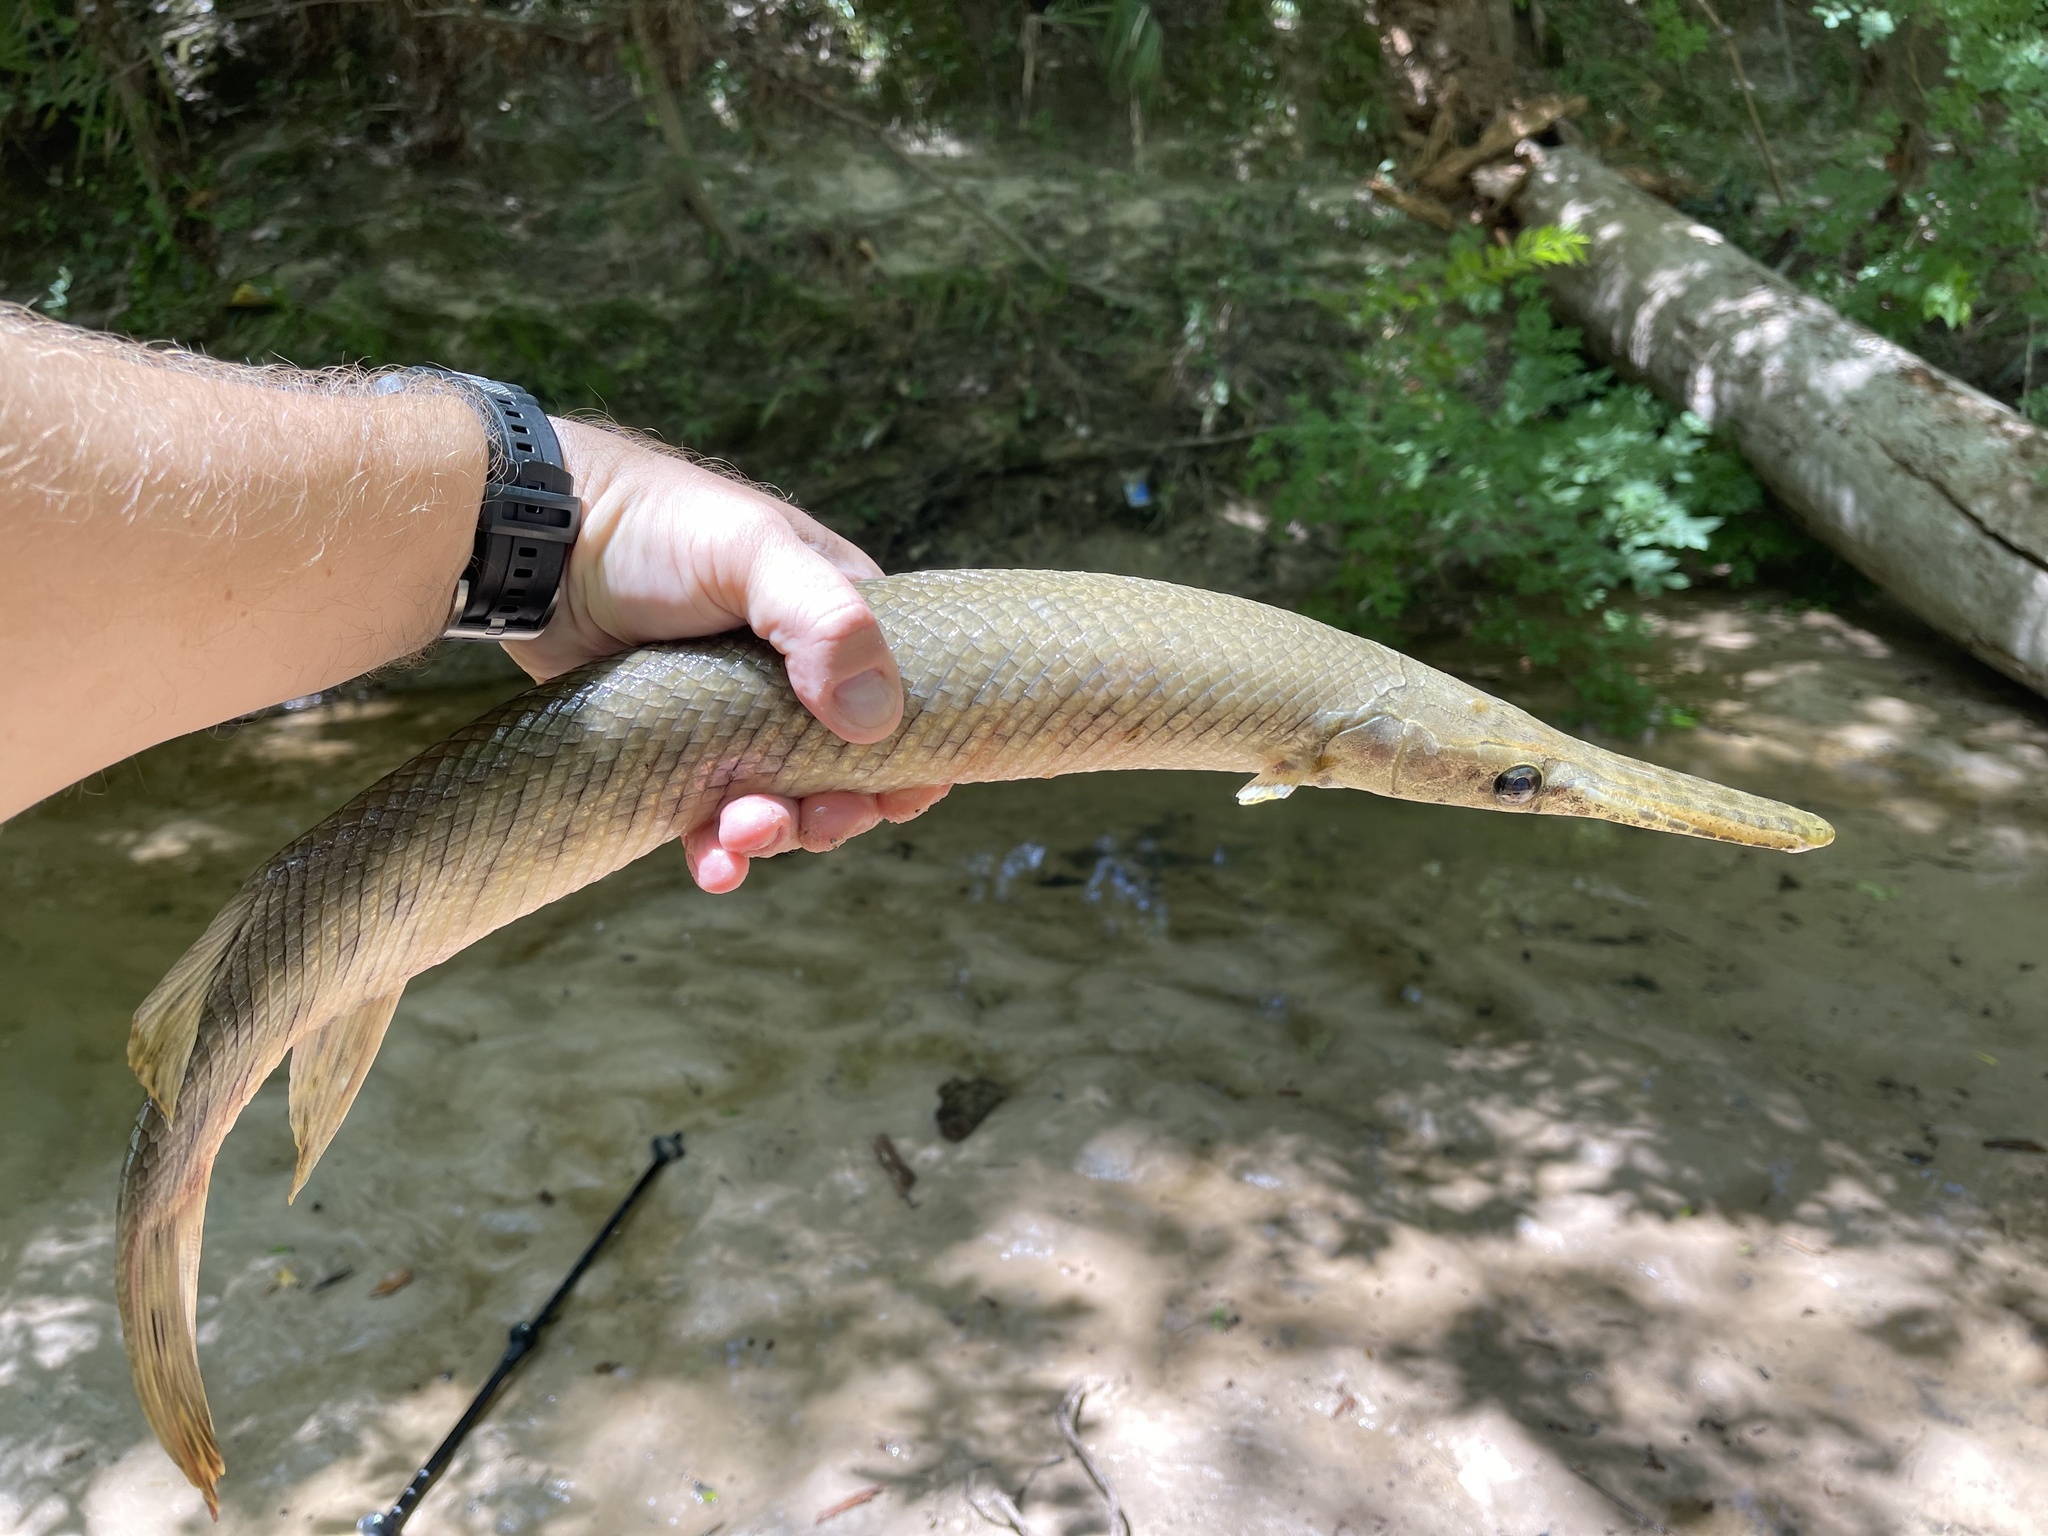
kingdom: Animalia
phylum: Chordata
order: Lepisosteiformes
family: Lepisosteidae
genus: Lepisosteus
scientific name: Lepisosteus oculatus
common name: Spotted gar
